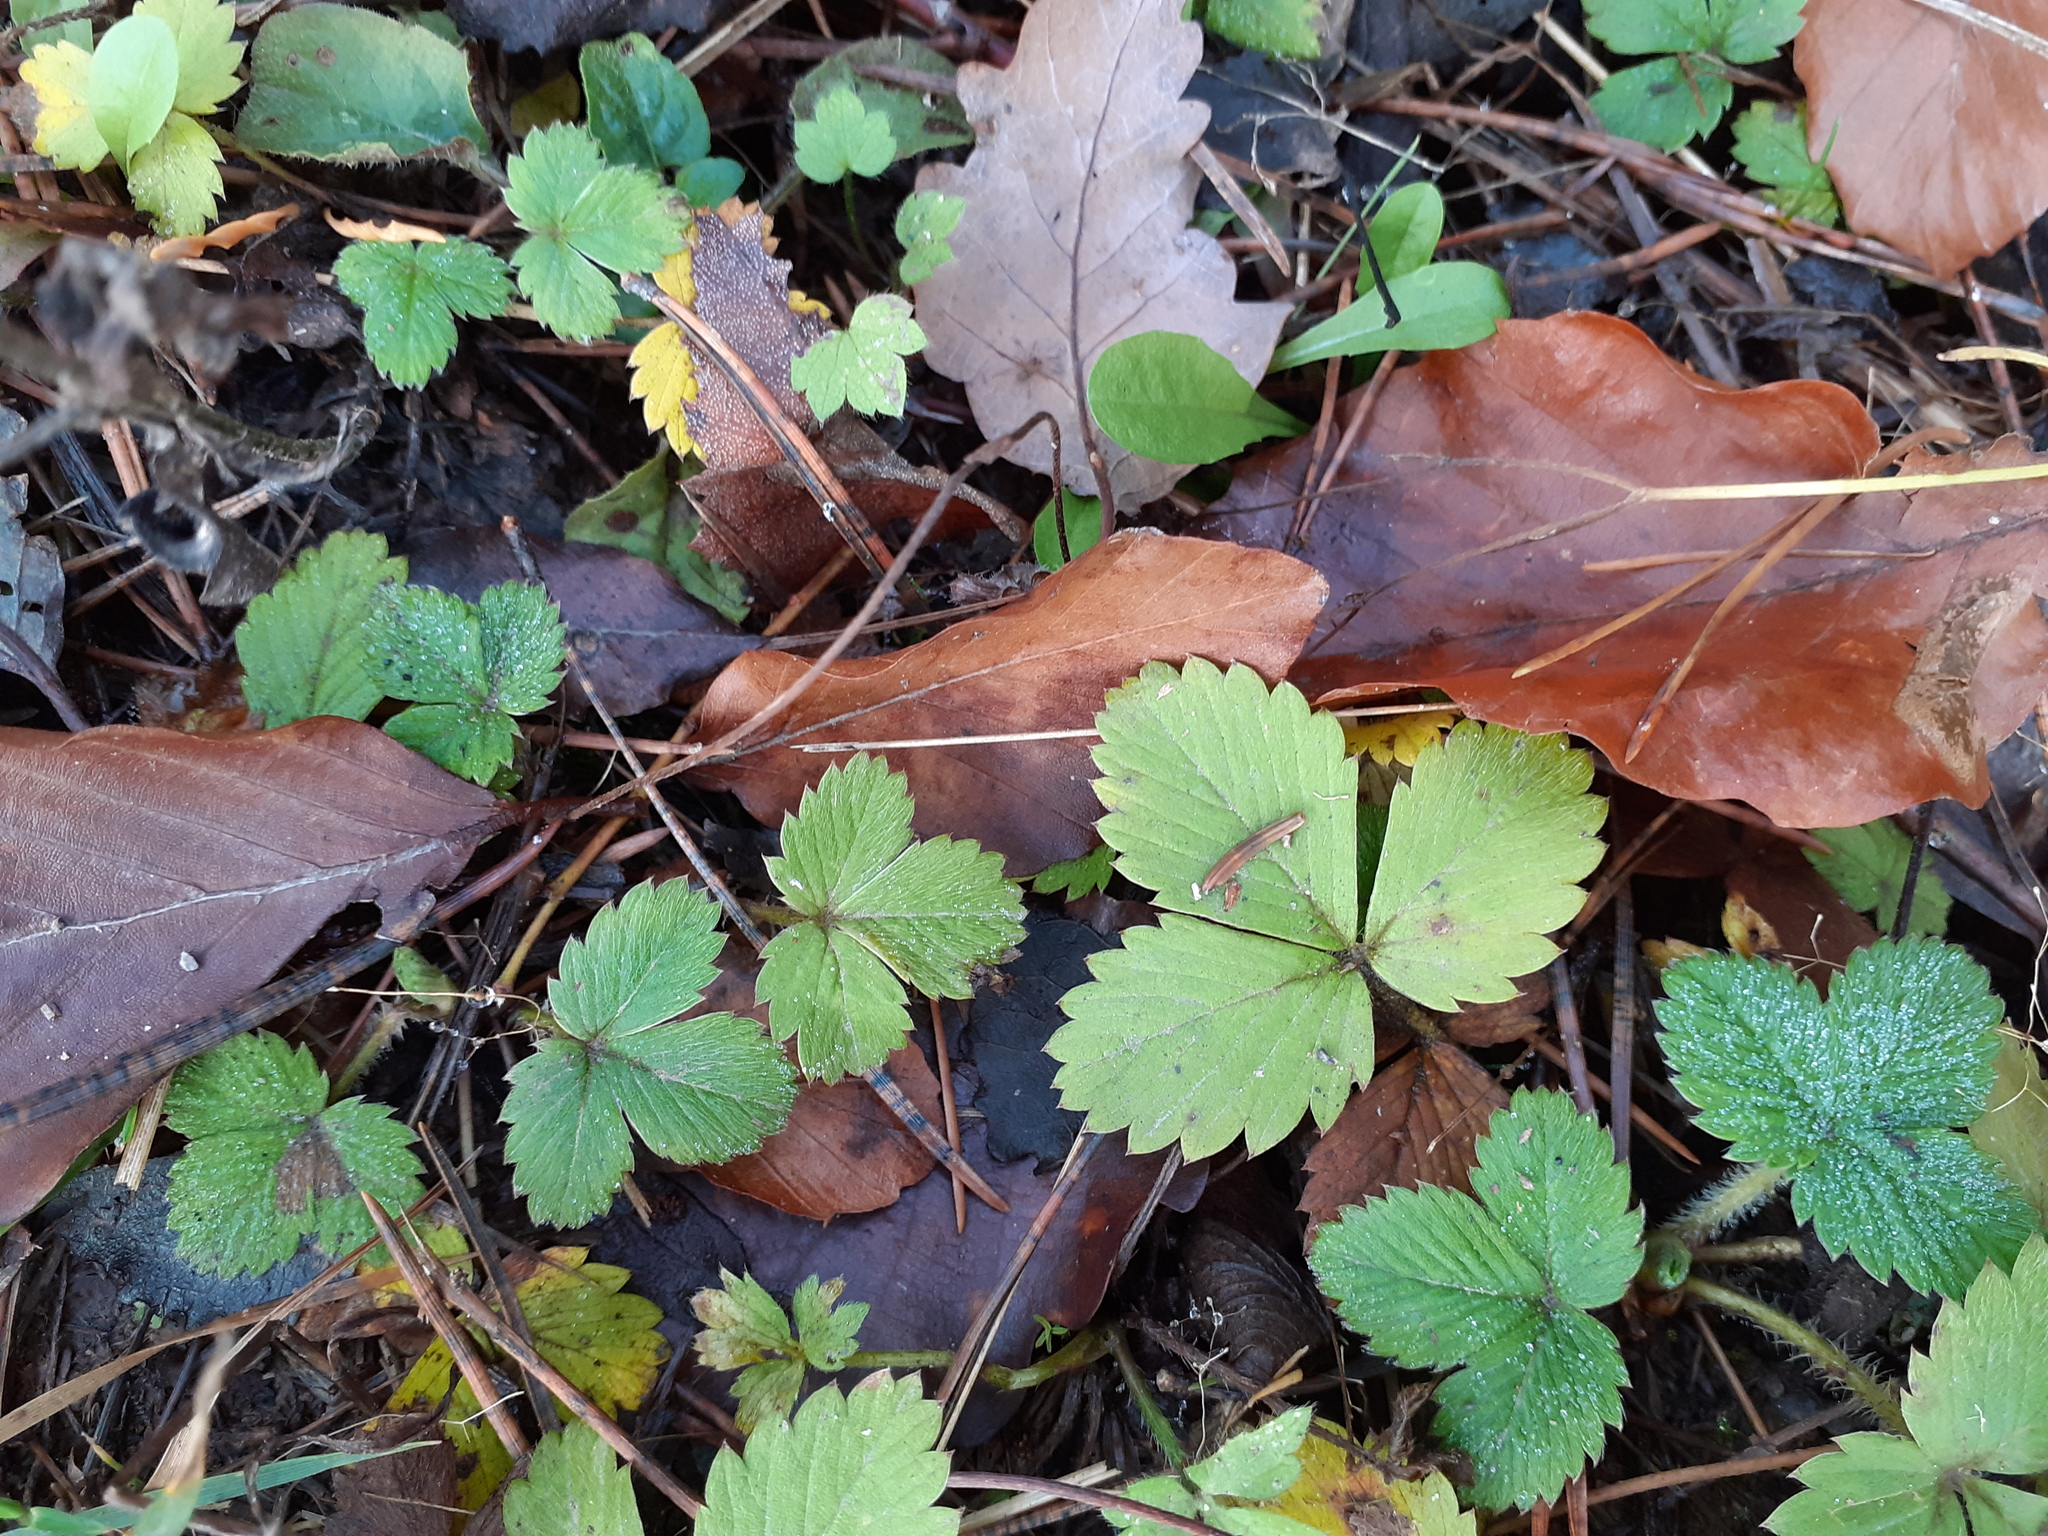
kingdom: Plantae
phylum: Tracheophyta
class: Magnoliopsida
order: Rosales
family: Rosaceae
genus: Fragaria
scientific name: Fragaria vesca
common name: Wild strawberry
